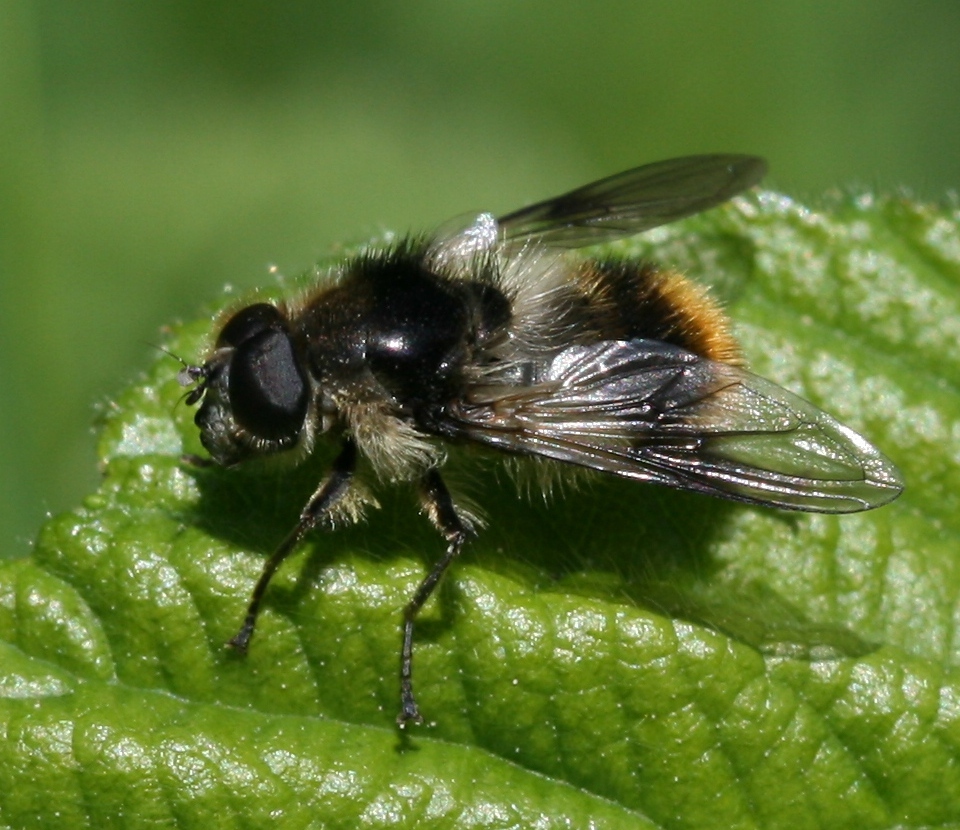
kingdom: Animalia
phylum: Arthropoda
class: Insecta
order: Diptera
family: Syrphidae
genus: Cheilosia
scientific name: Cheilosia illustrata
